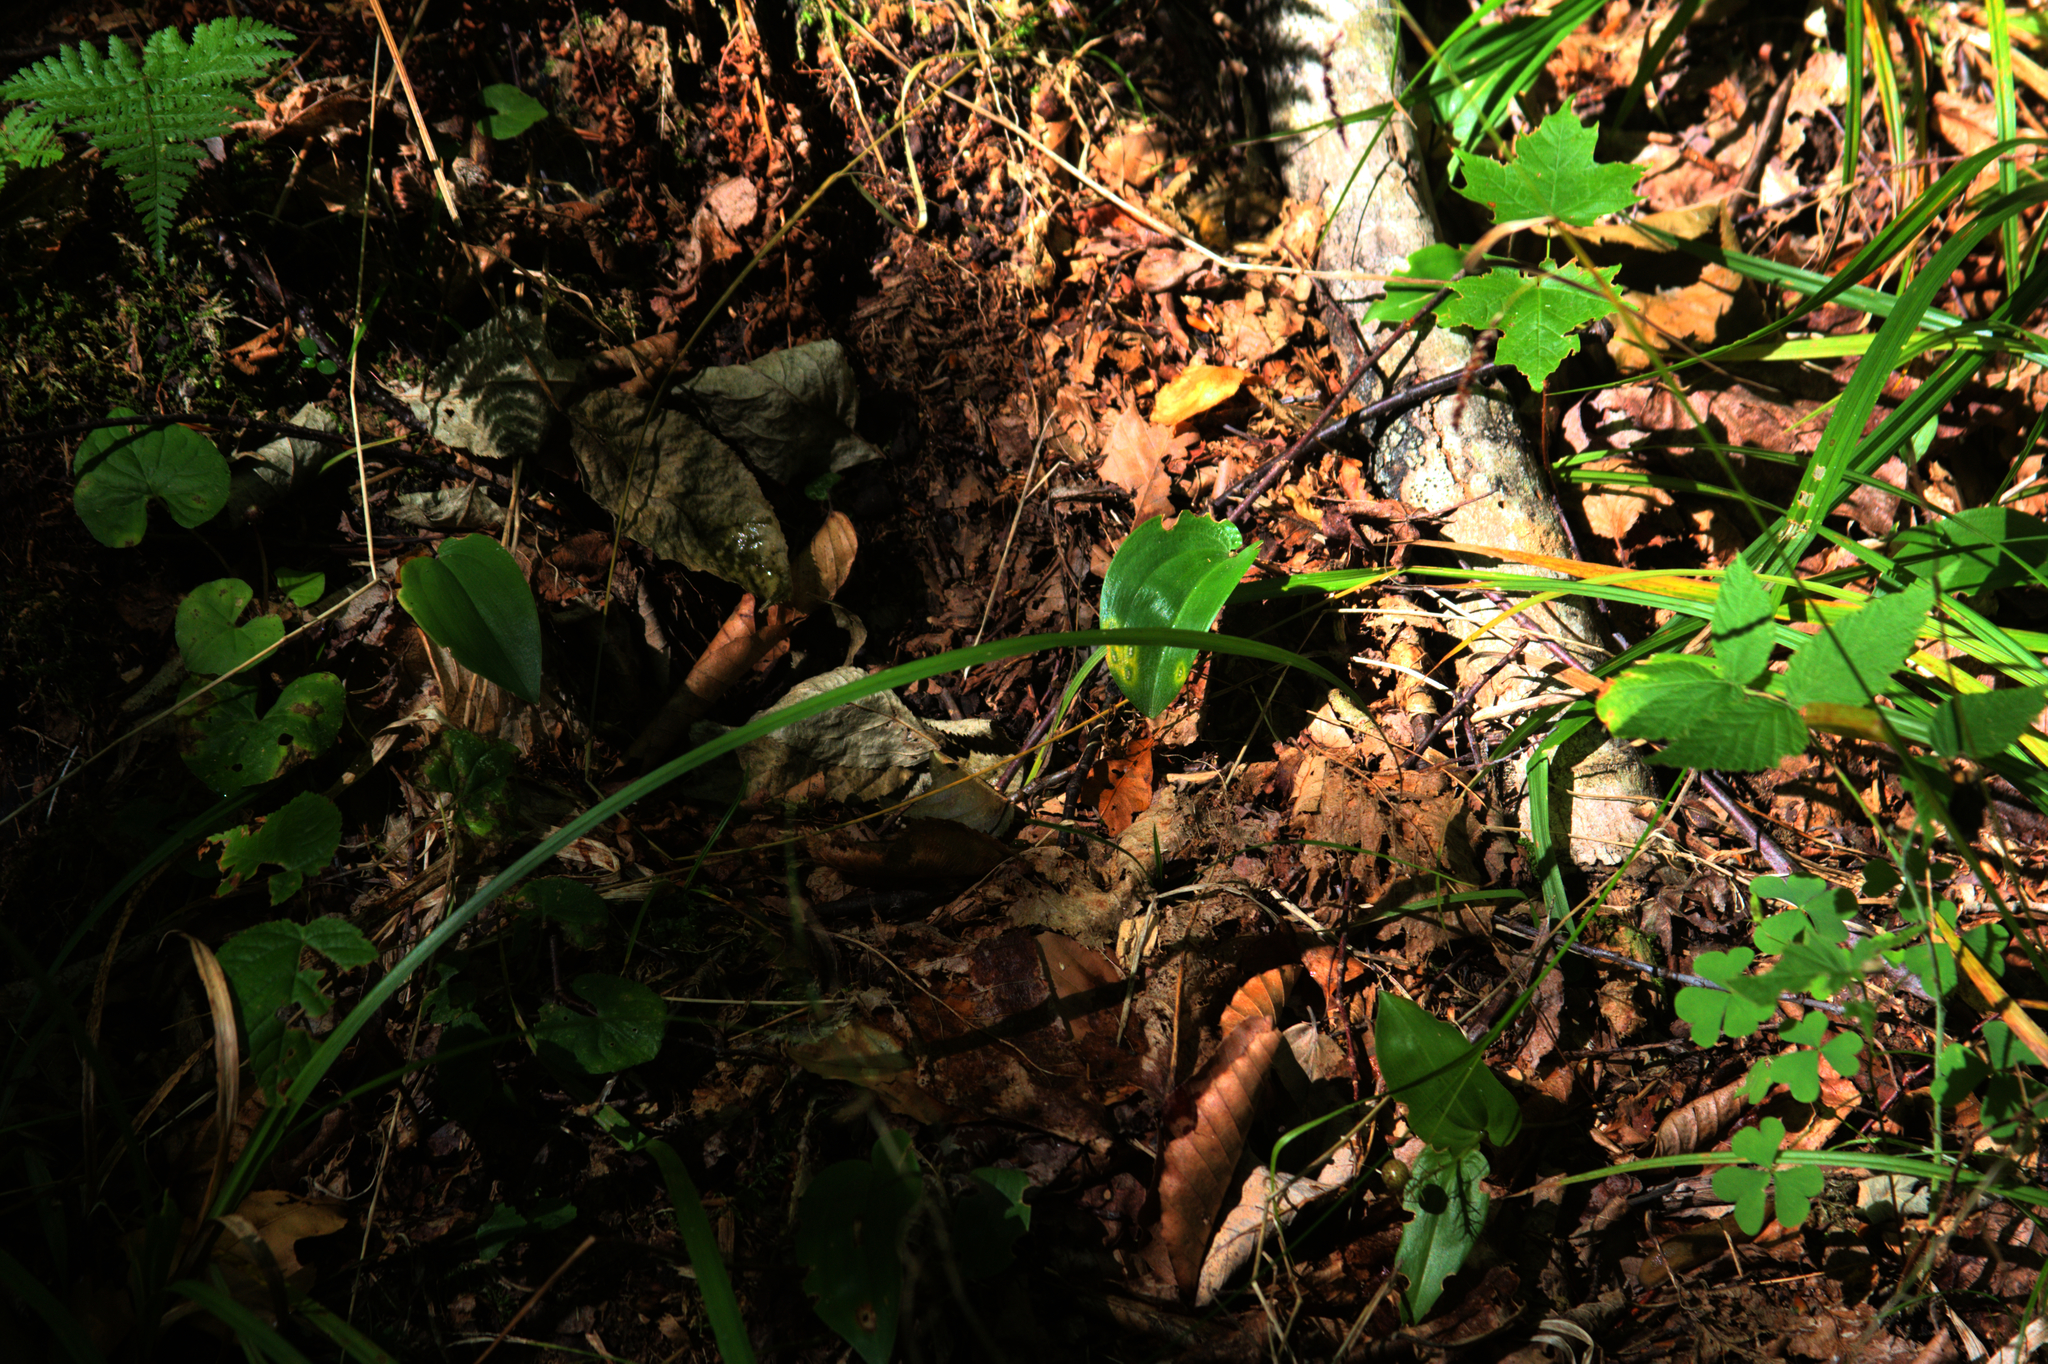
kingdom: Plantae
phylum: Tracheophyta
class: Liliopsida
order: Asparagales
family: Asparagaceae
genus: Maianthemum
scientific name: Maianthemum canadense
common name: False lily-of-the-valley
